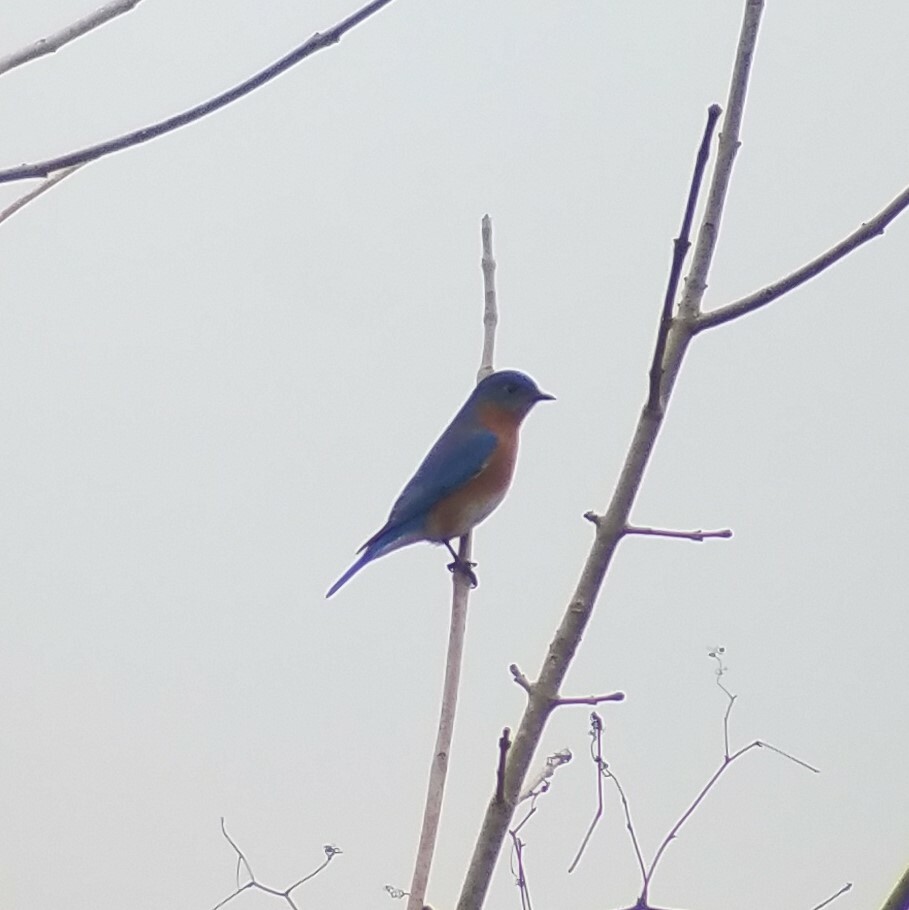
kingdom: Animalia
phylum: Chordata
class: Aves
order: Passeriformes
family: Turdidae
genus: Sialia
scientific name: Sialia sialis
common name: Eastern bluebird
